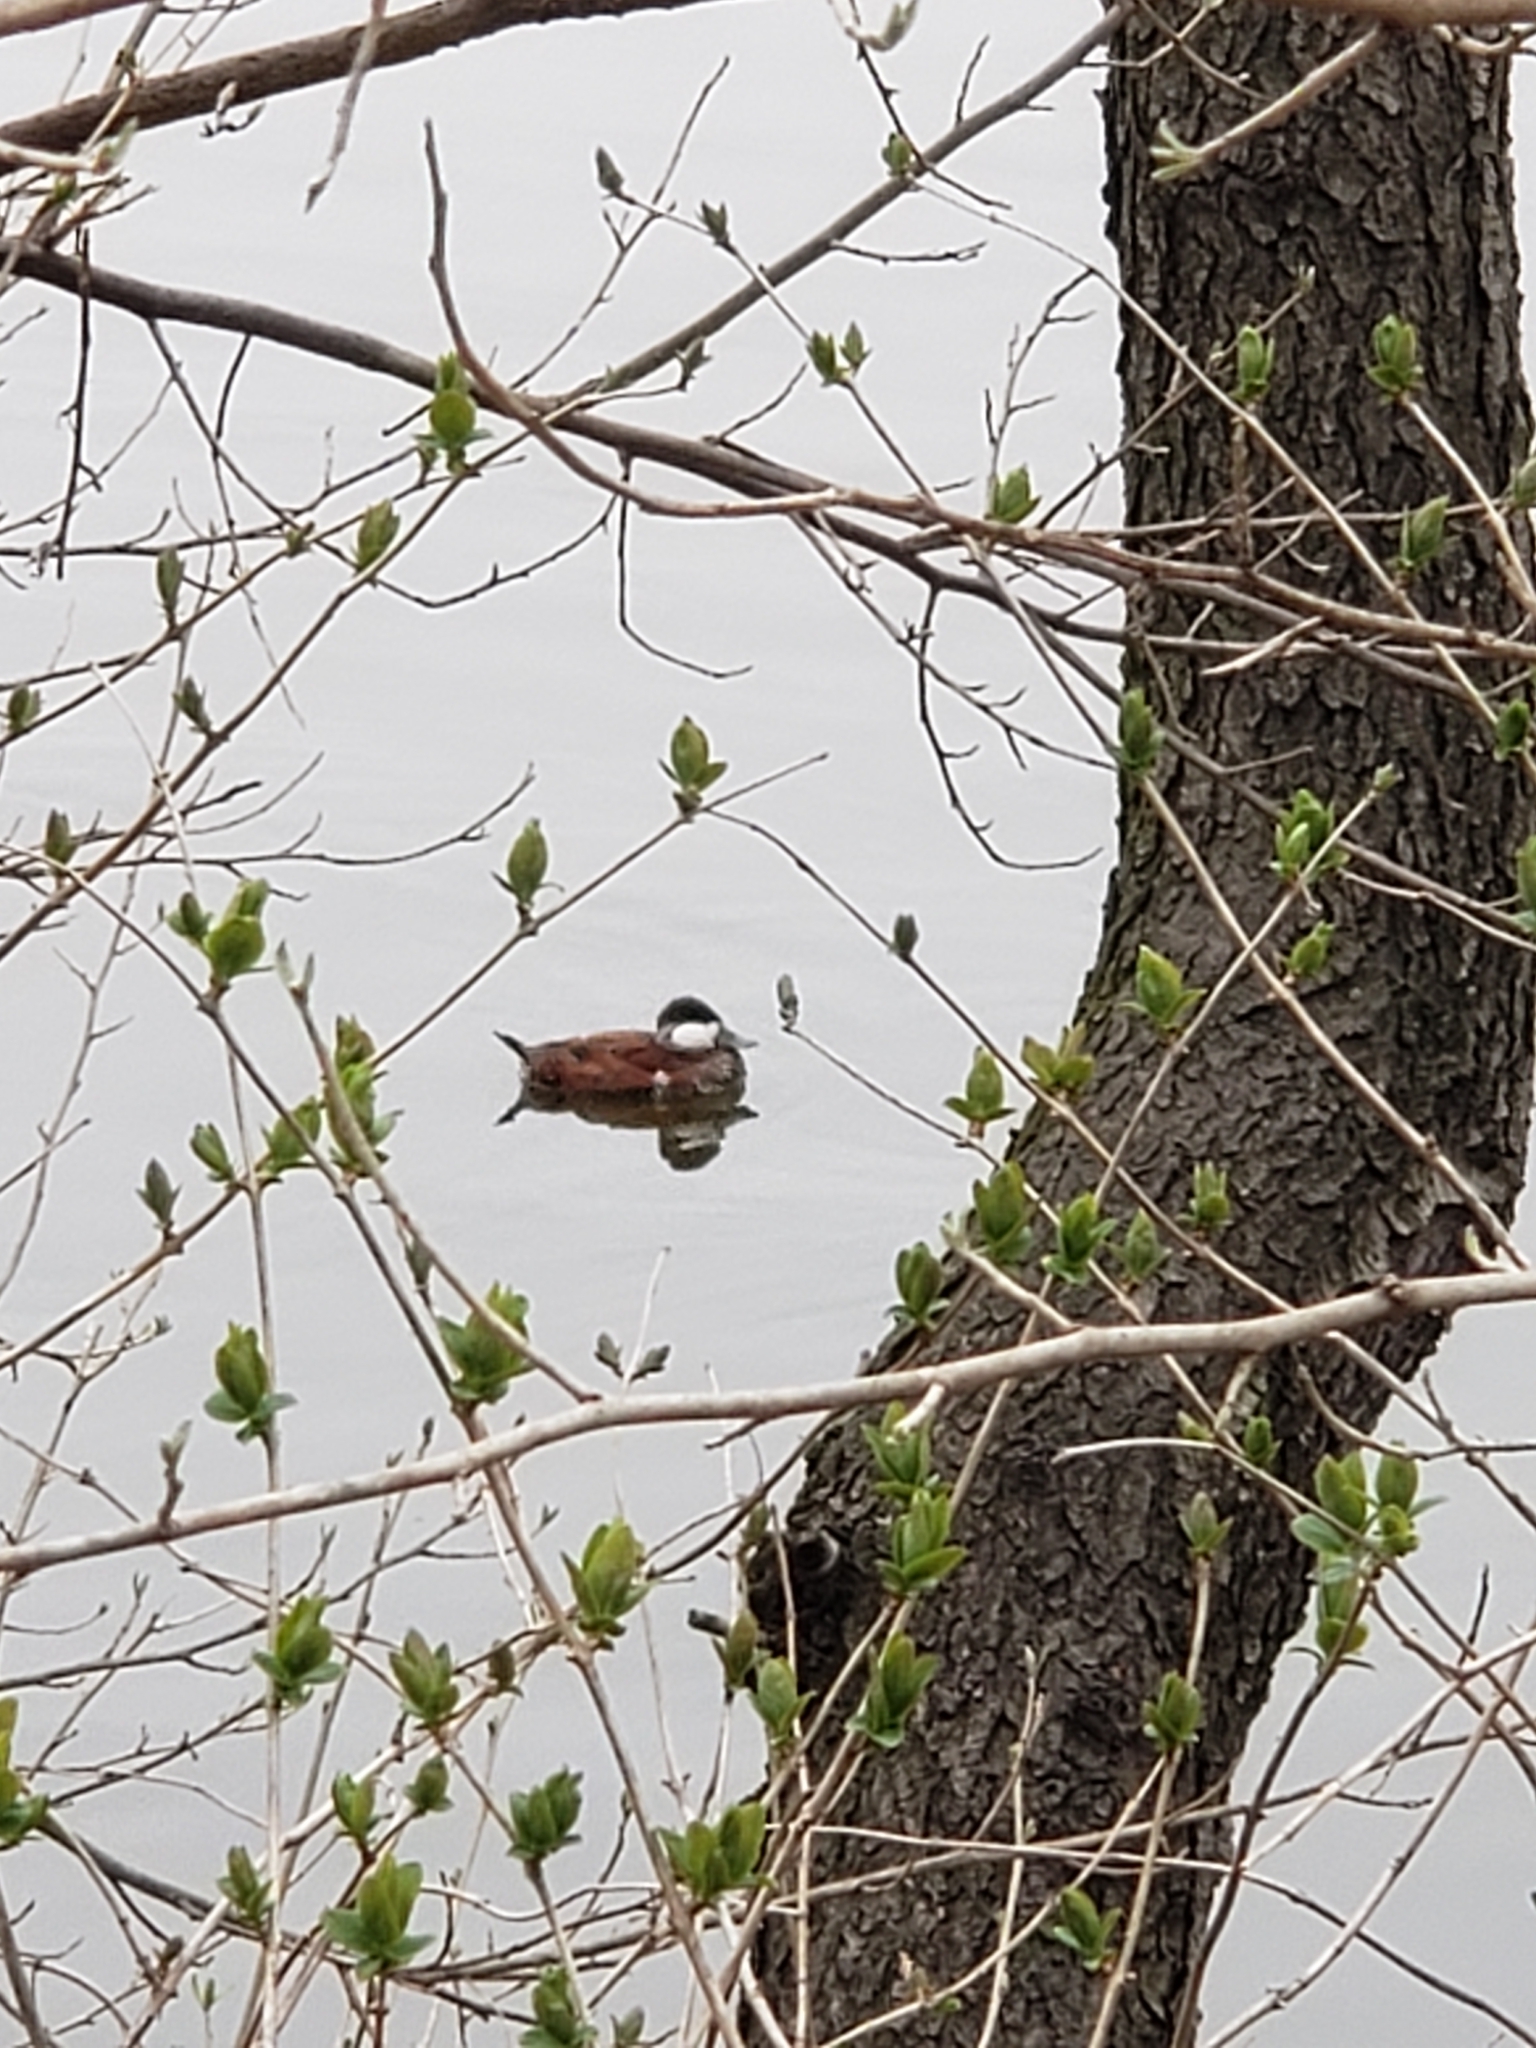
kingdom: Animalia
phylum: Chordata
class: Aves
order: Anseriformes
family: Anatidae
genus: Oxyura
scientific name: Oxyura jamaicensis
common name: Ruddy duck
